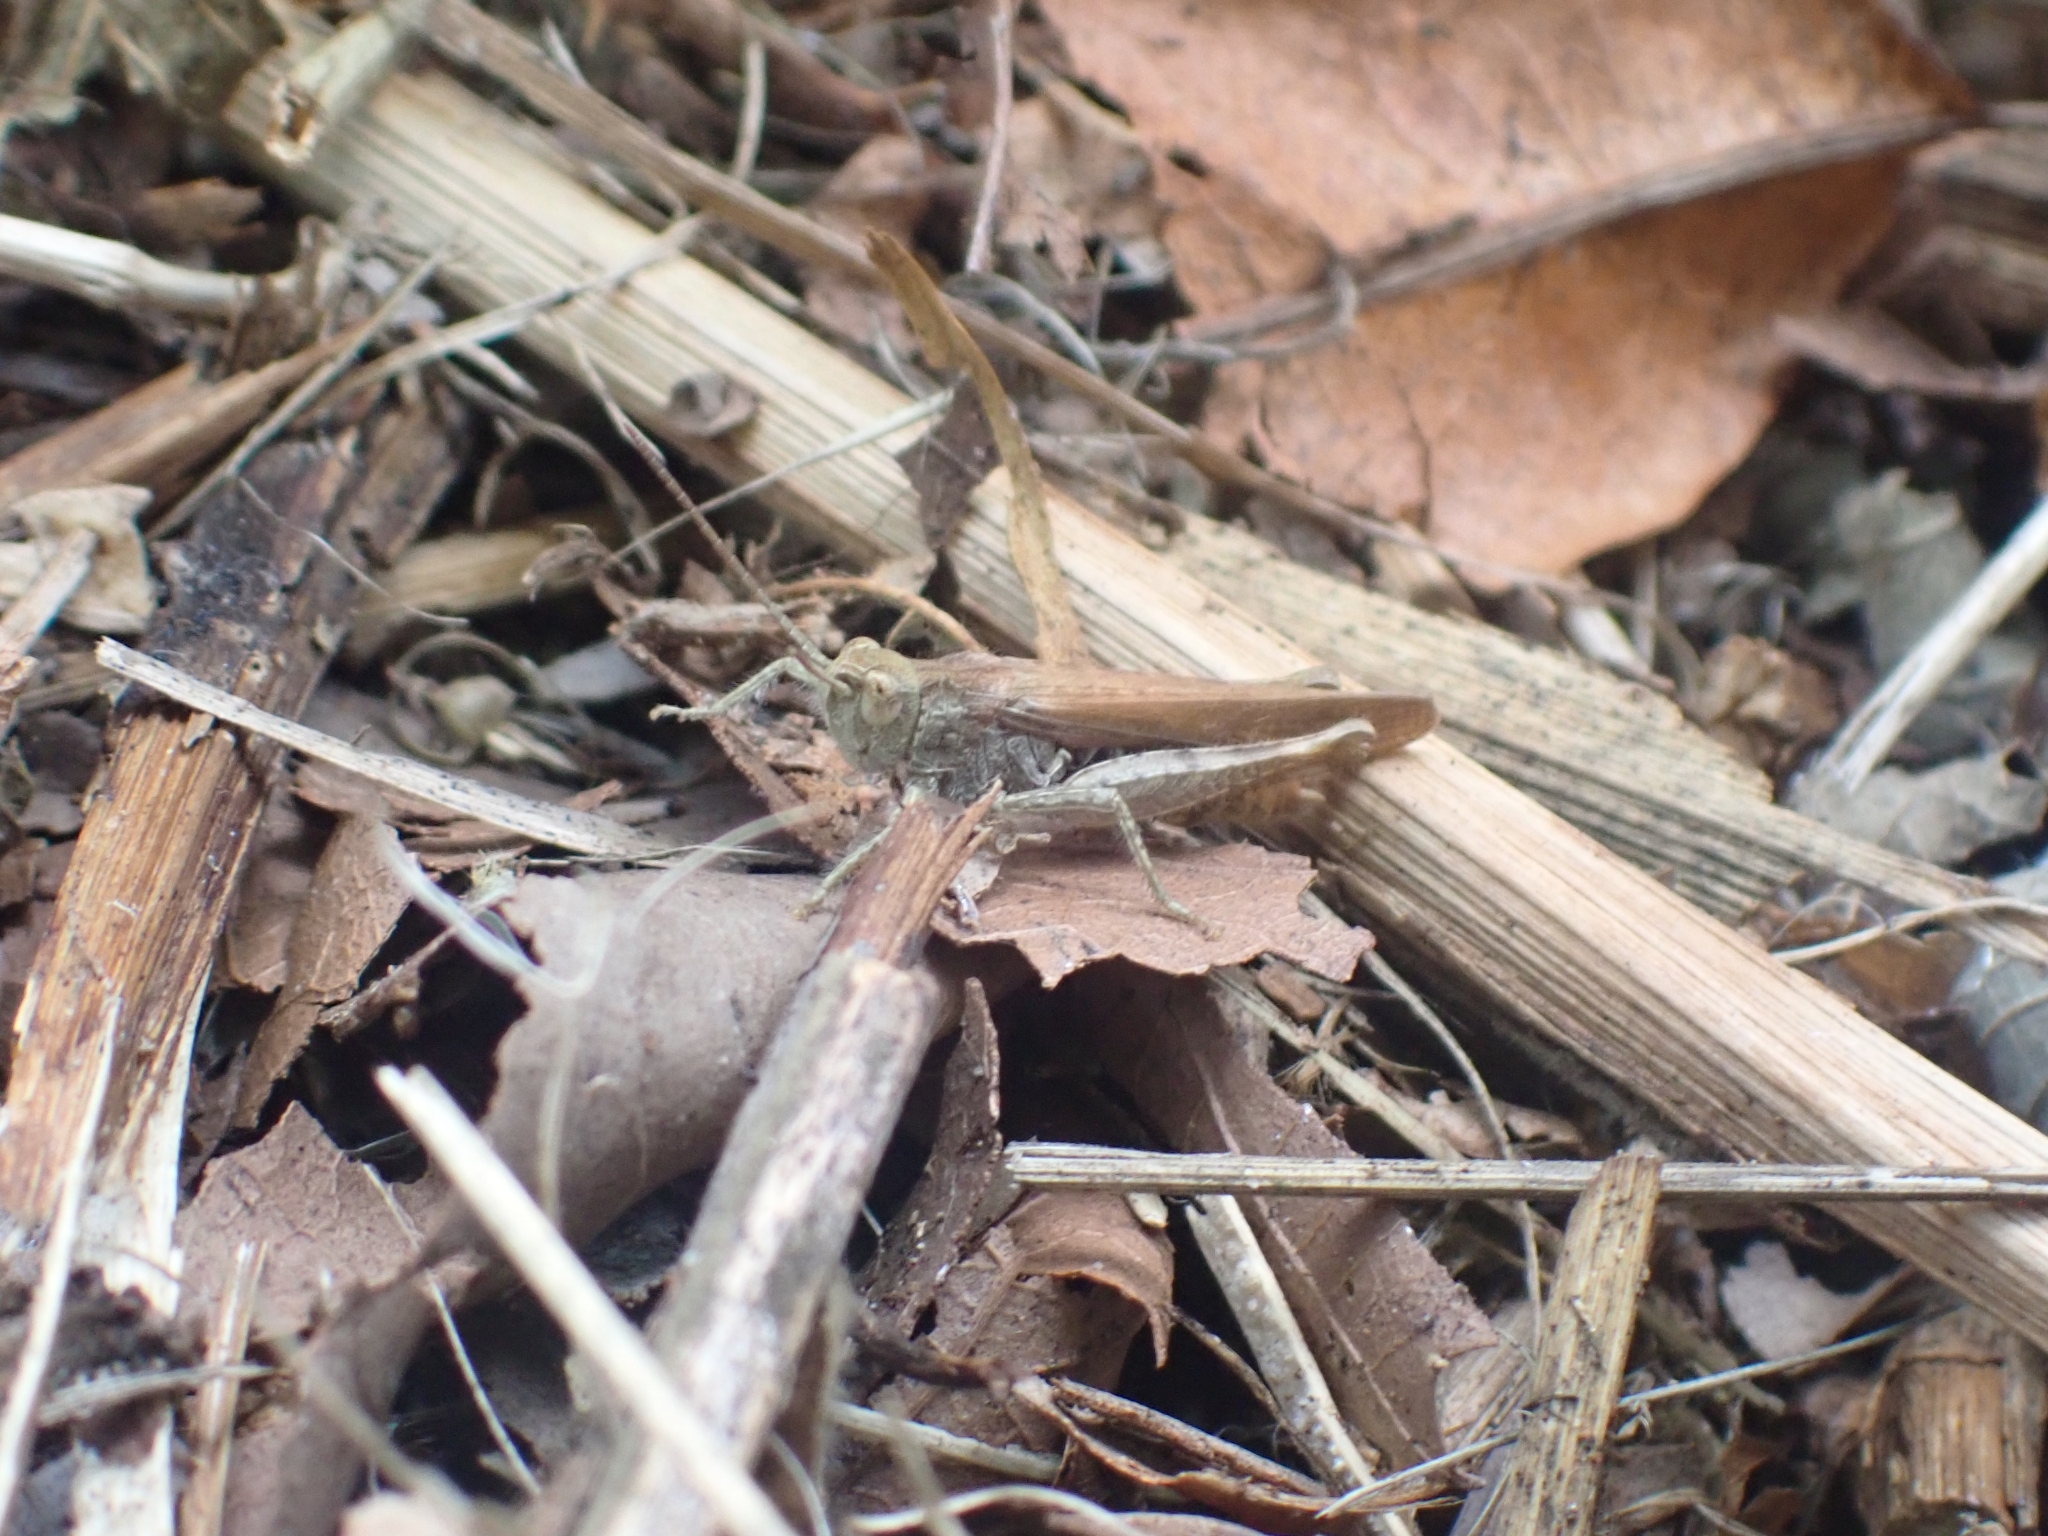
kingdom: Animalia
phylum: Arthropoda
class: Insecta
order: Orthoptera
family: Acrididae
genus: Chorthippus
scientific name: Chorthippus brunneus
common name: Field grasshopper
